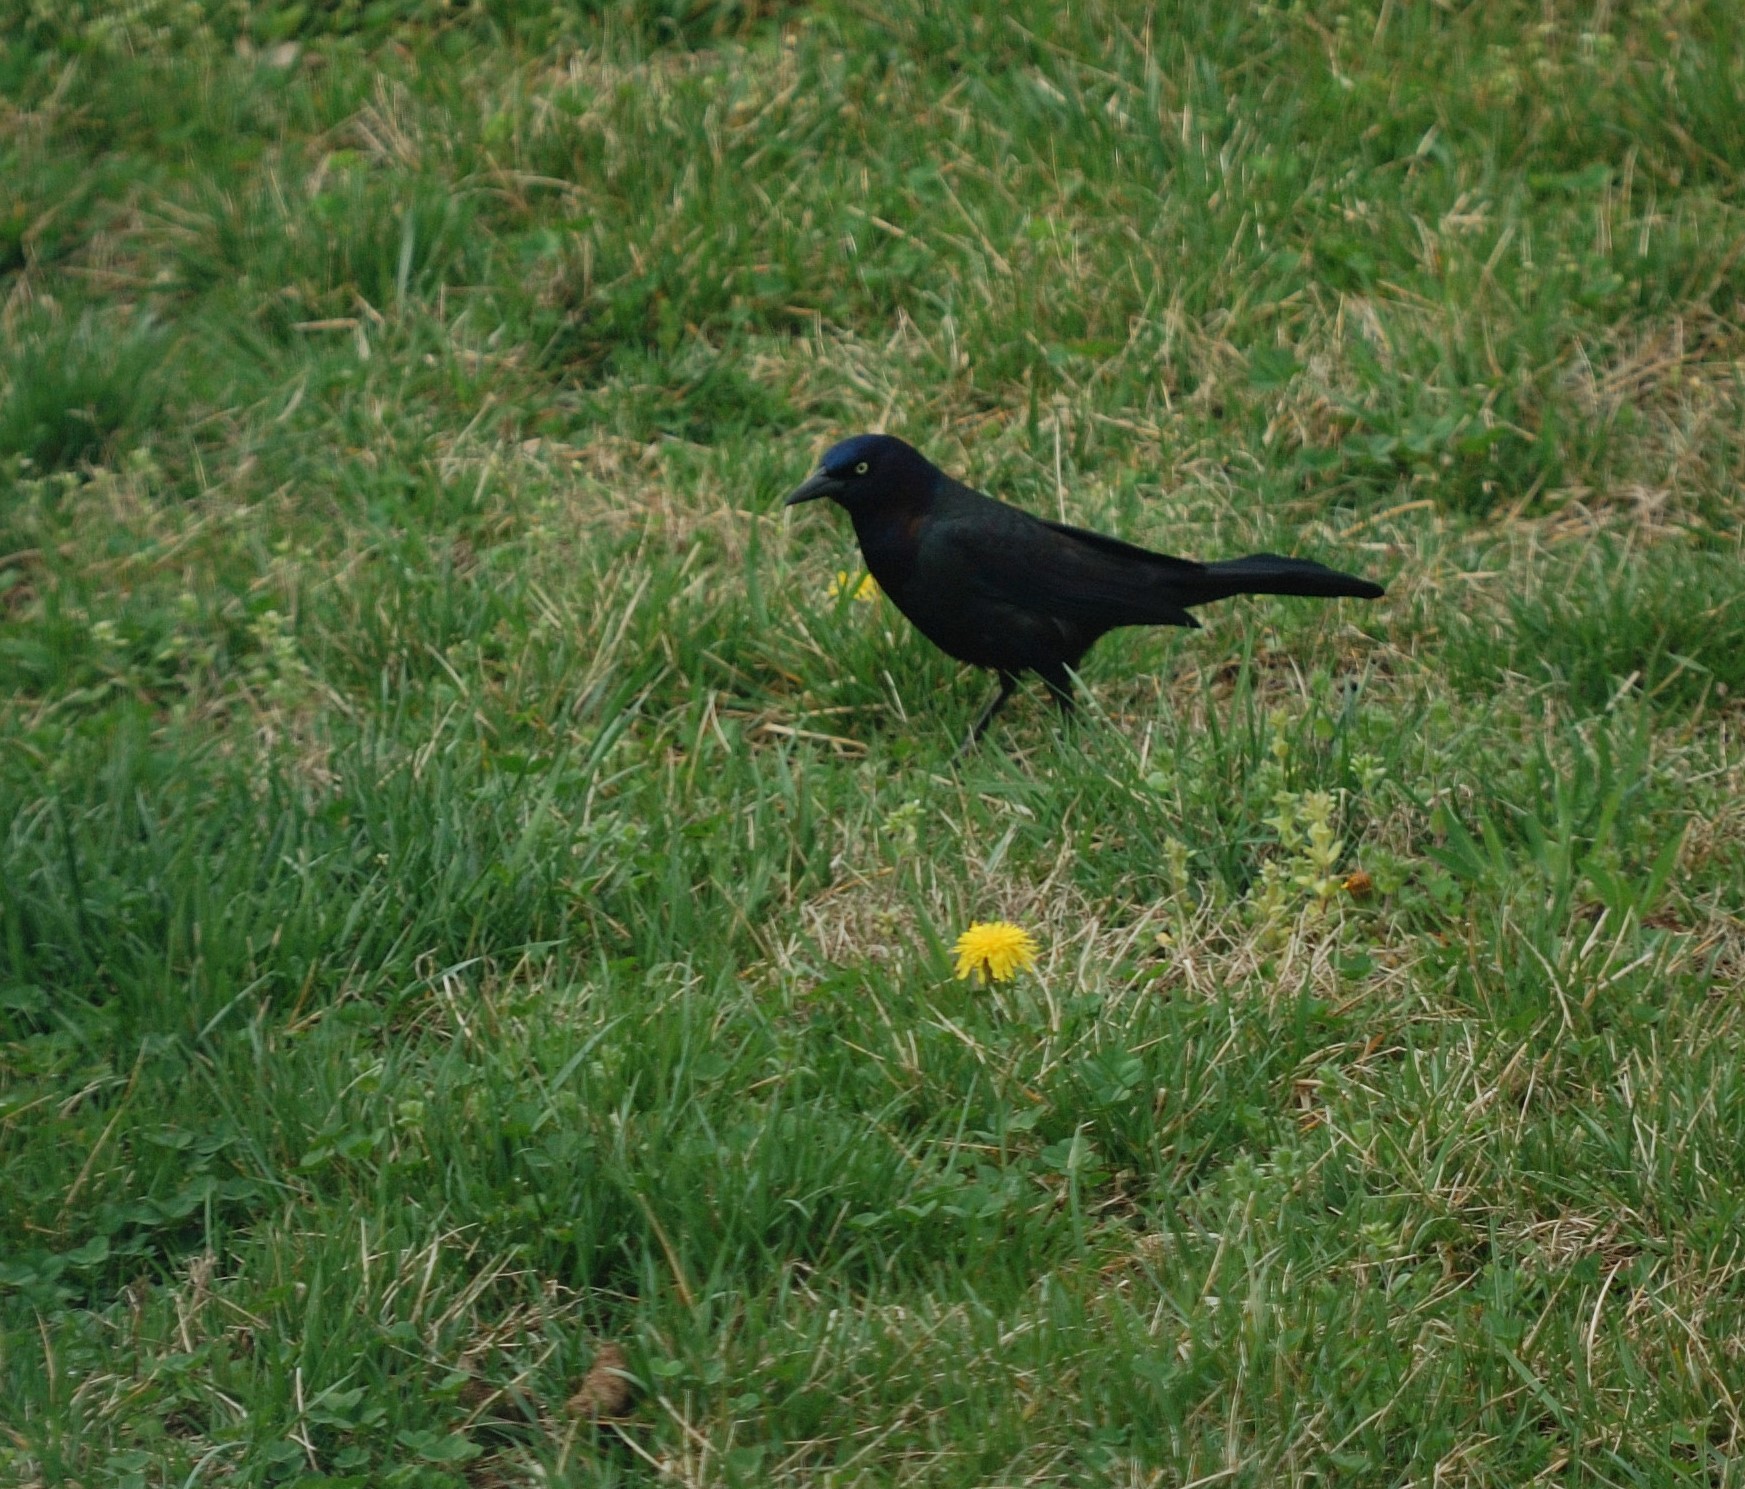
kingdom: Animalia
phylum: Chordata
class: Aves
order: Passeriformes
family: Icteridae
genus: Quiscalus
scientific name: Quiscalus quiscula
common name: Common grackle
